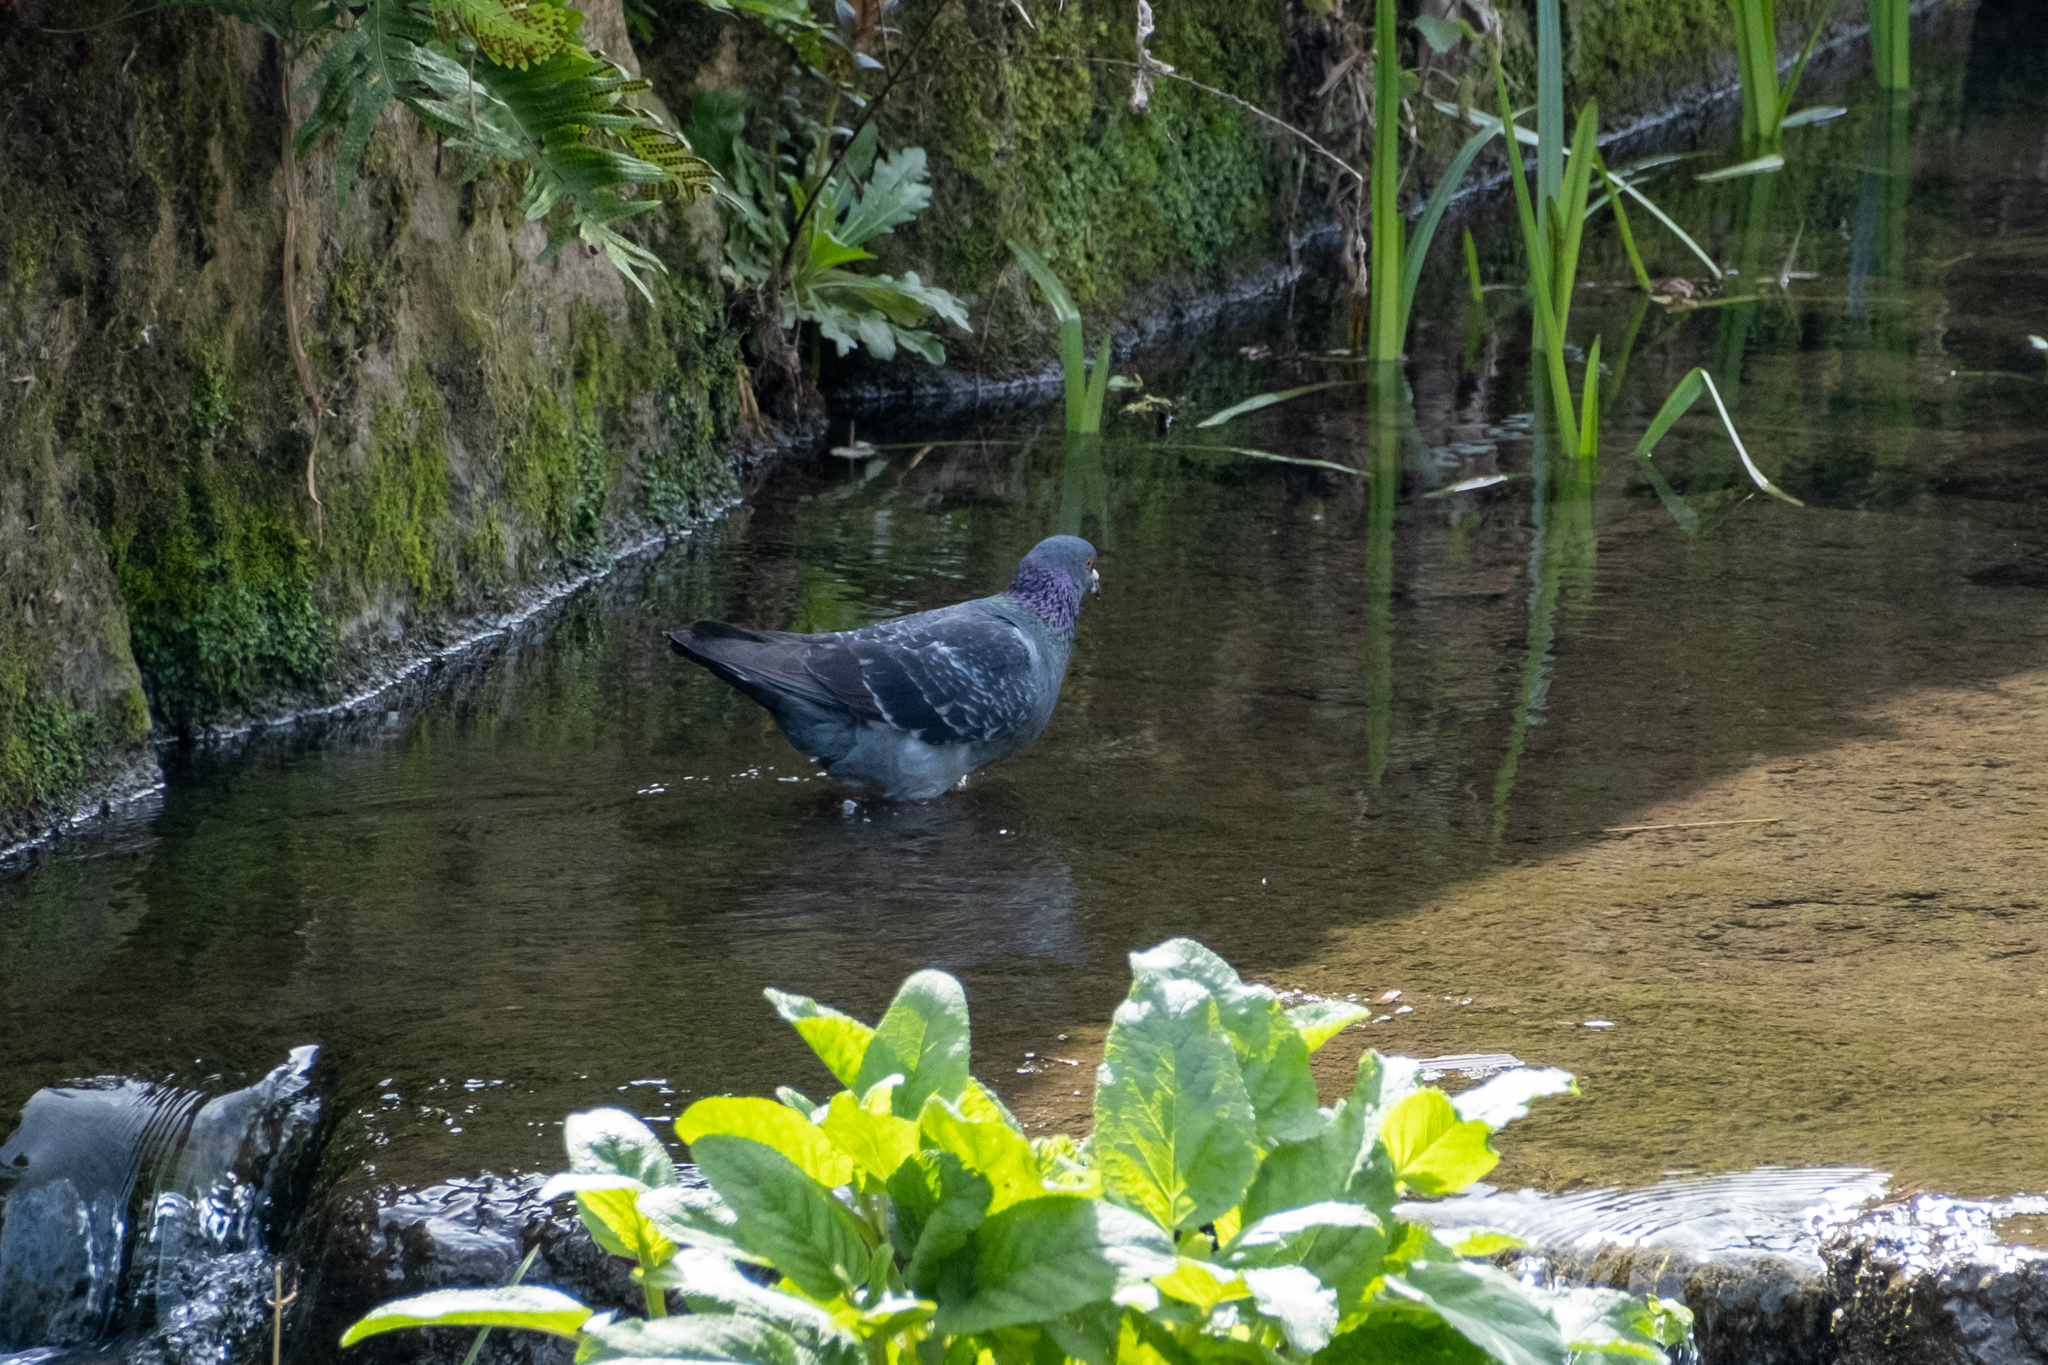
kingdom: Animalia
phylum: Chordata
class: Aves
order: Columbiformes
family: Columbidae
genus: Columba
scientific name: Columba livia
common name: Rock pigeon
